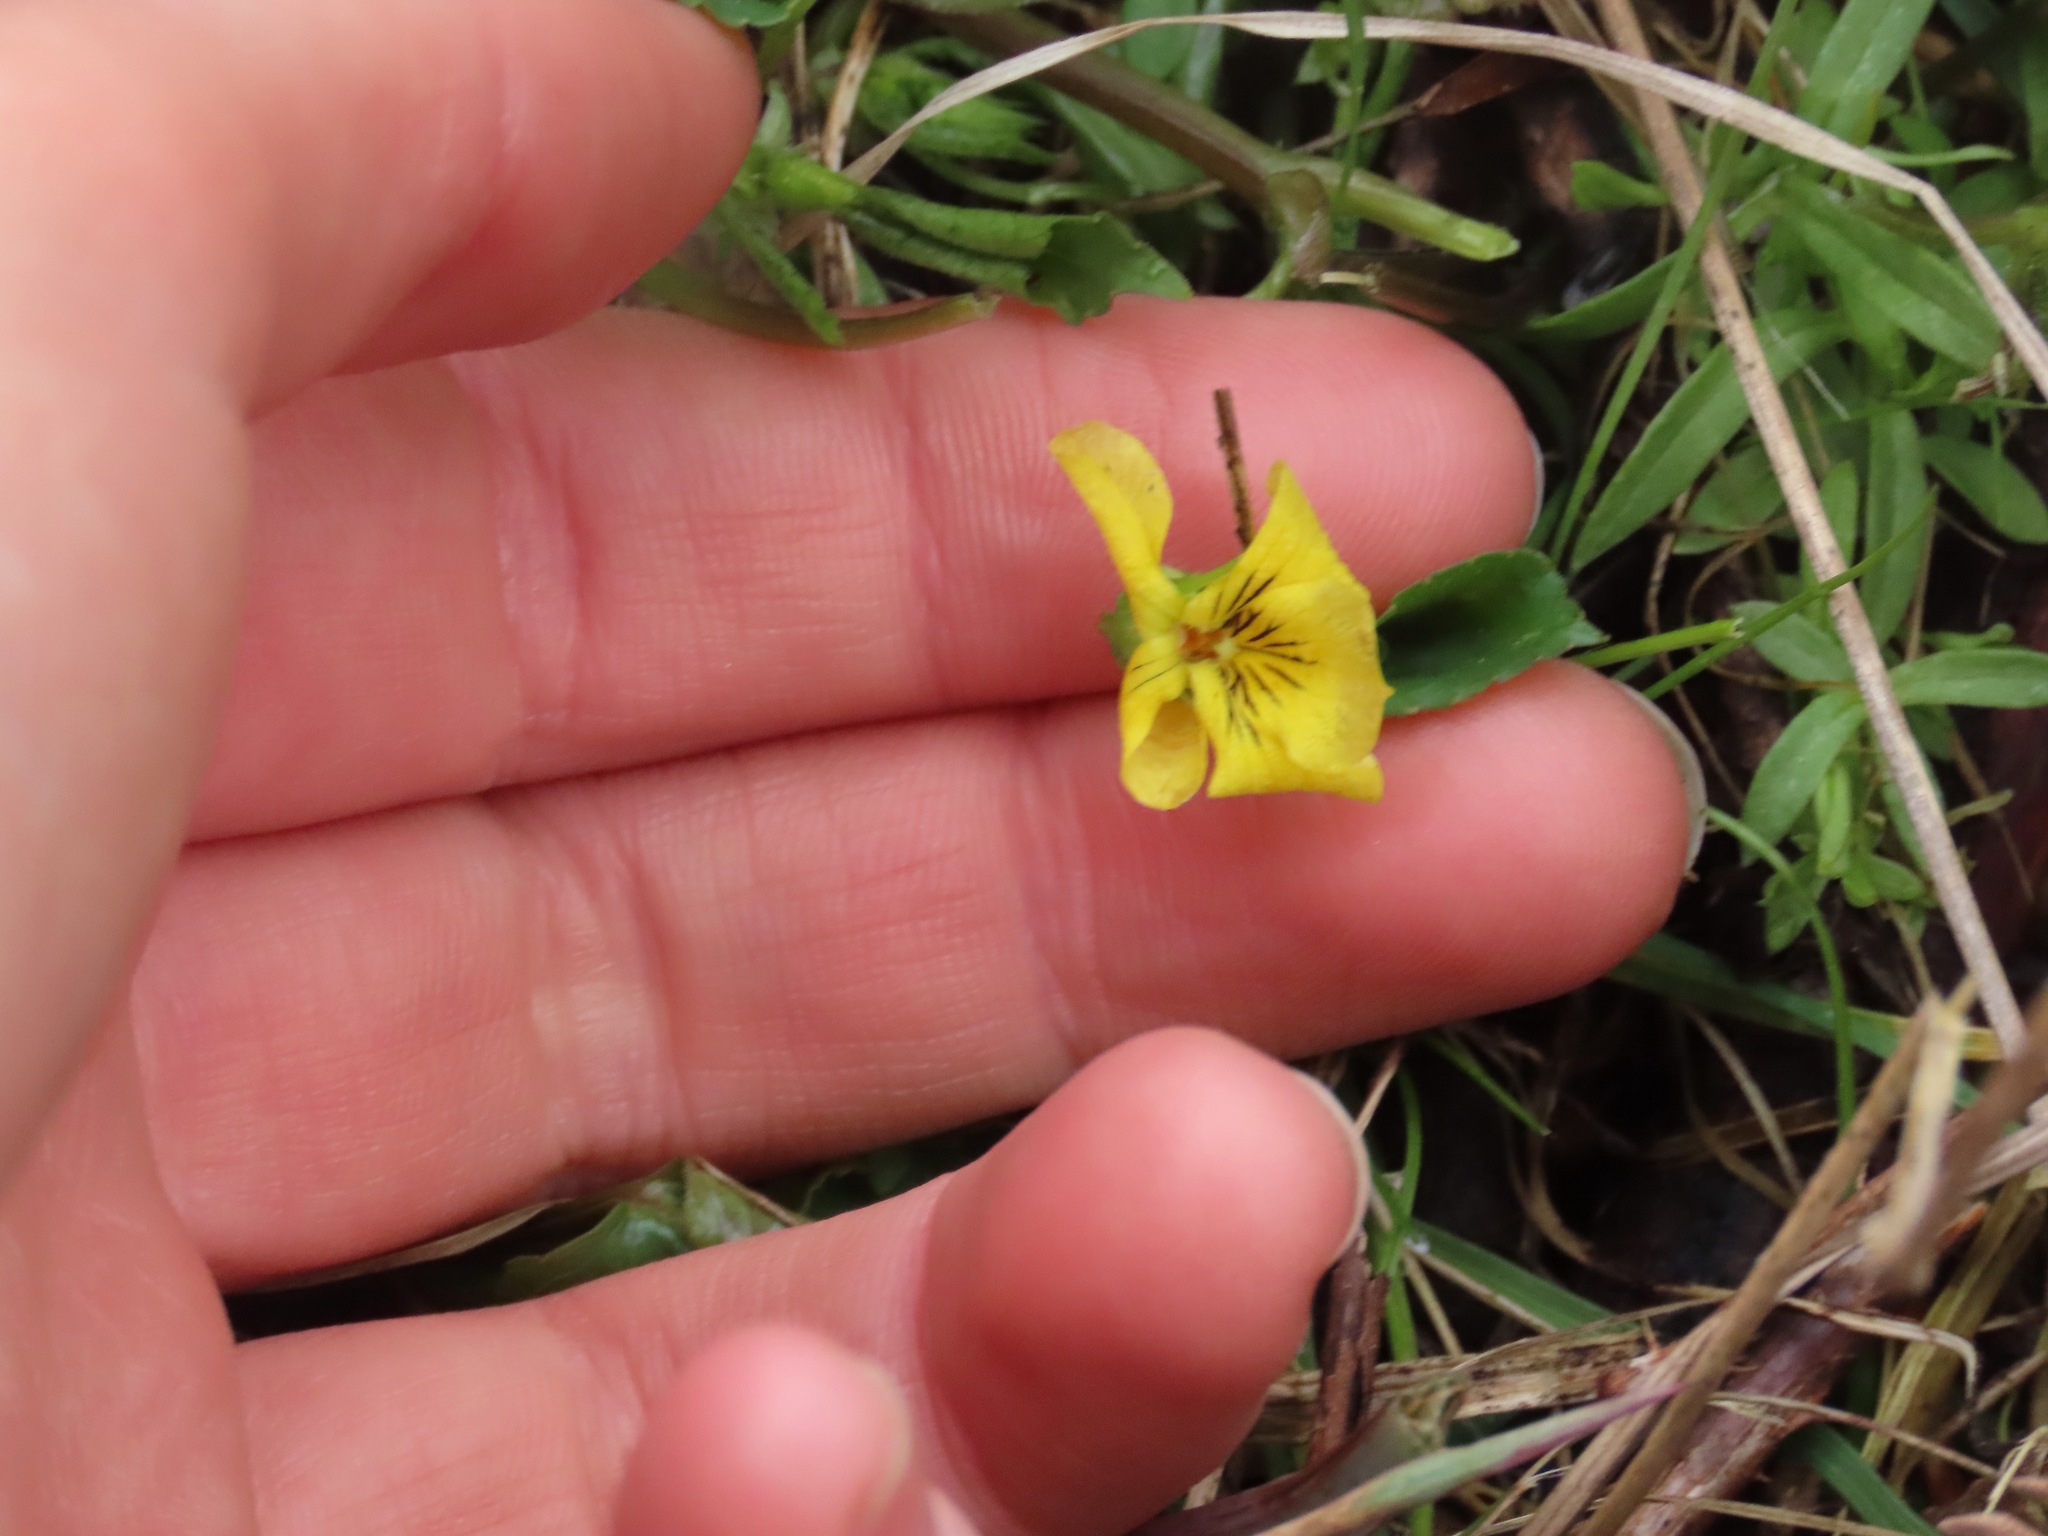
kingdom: Plantae
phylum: Tracheophyta
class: Magnoliopsida
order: Malpighiales
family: Violaceae
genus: Viola
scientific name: Viola glabella
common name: Stream violet
